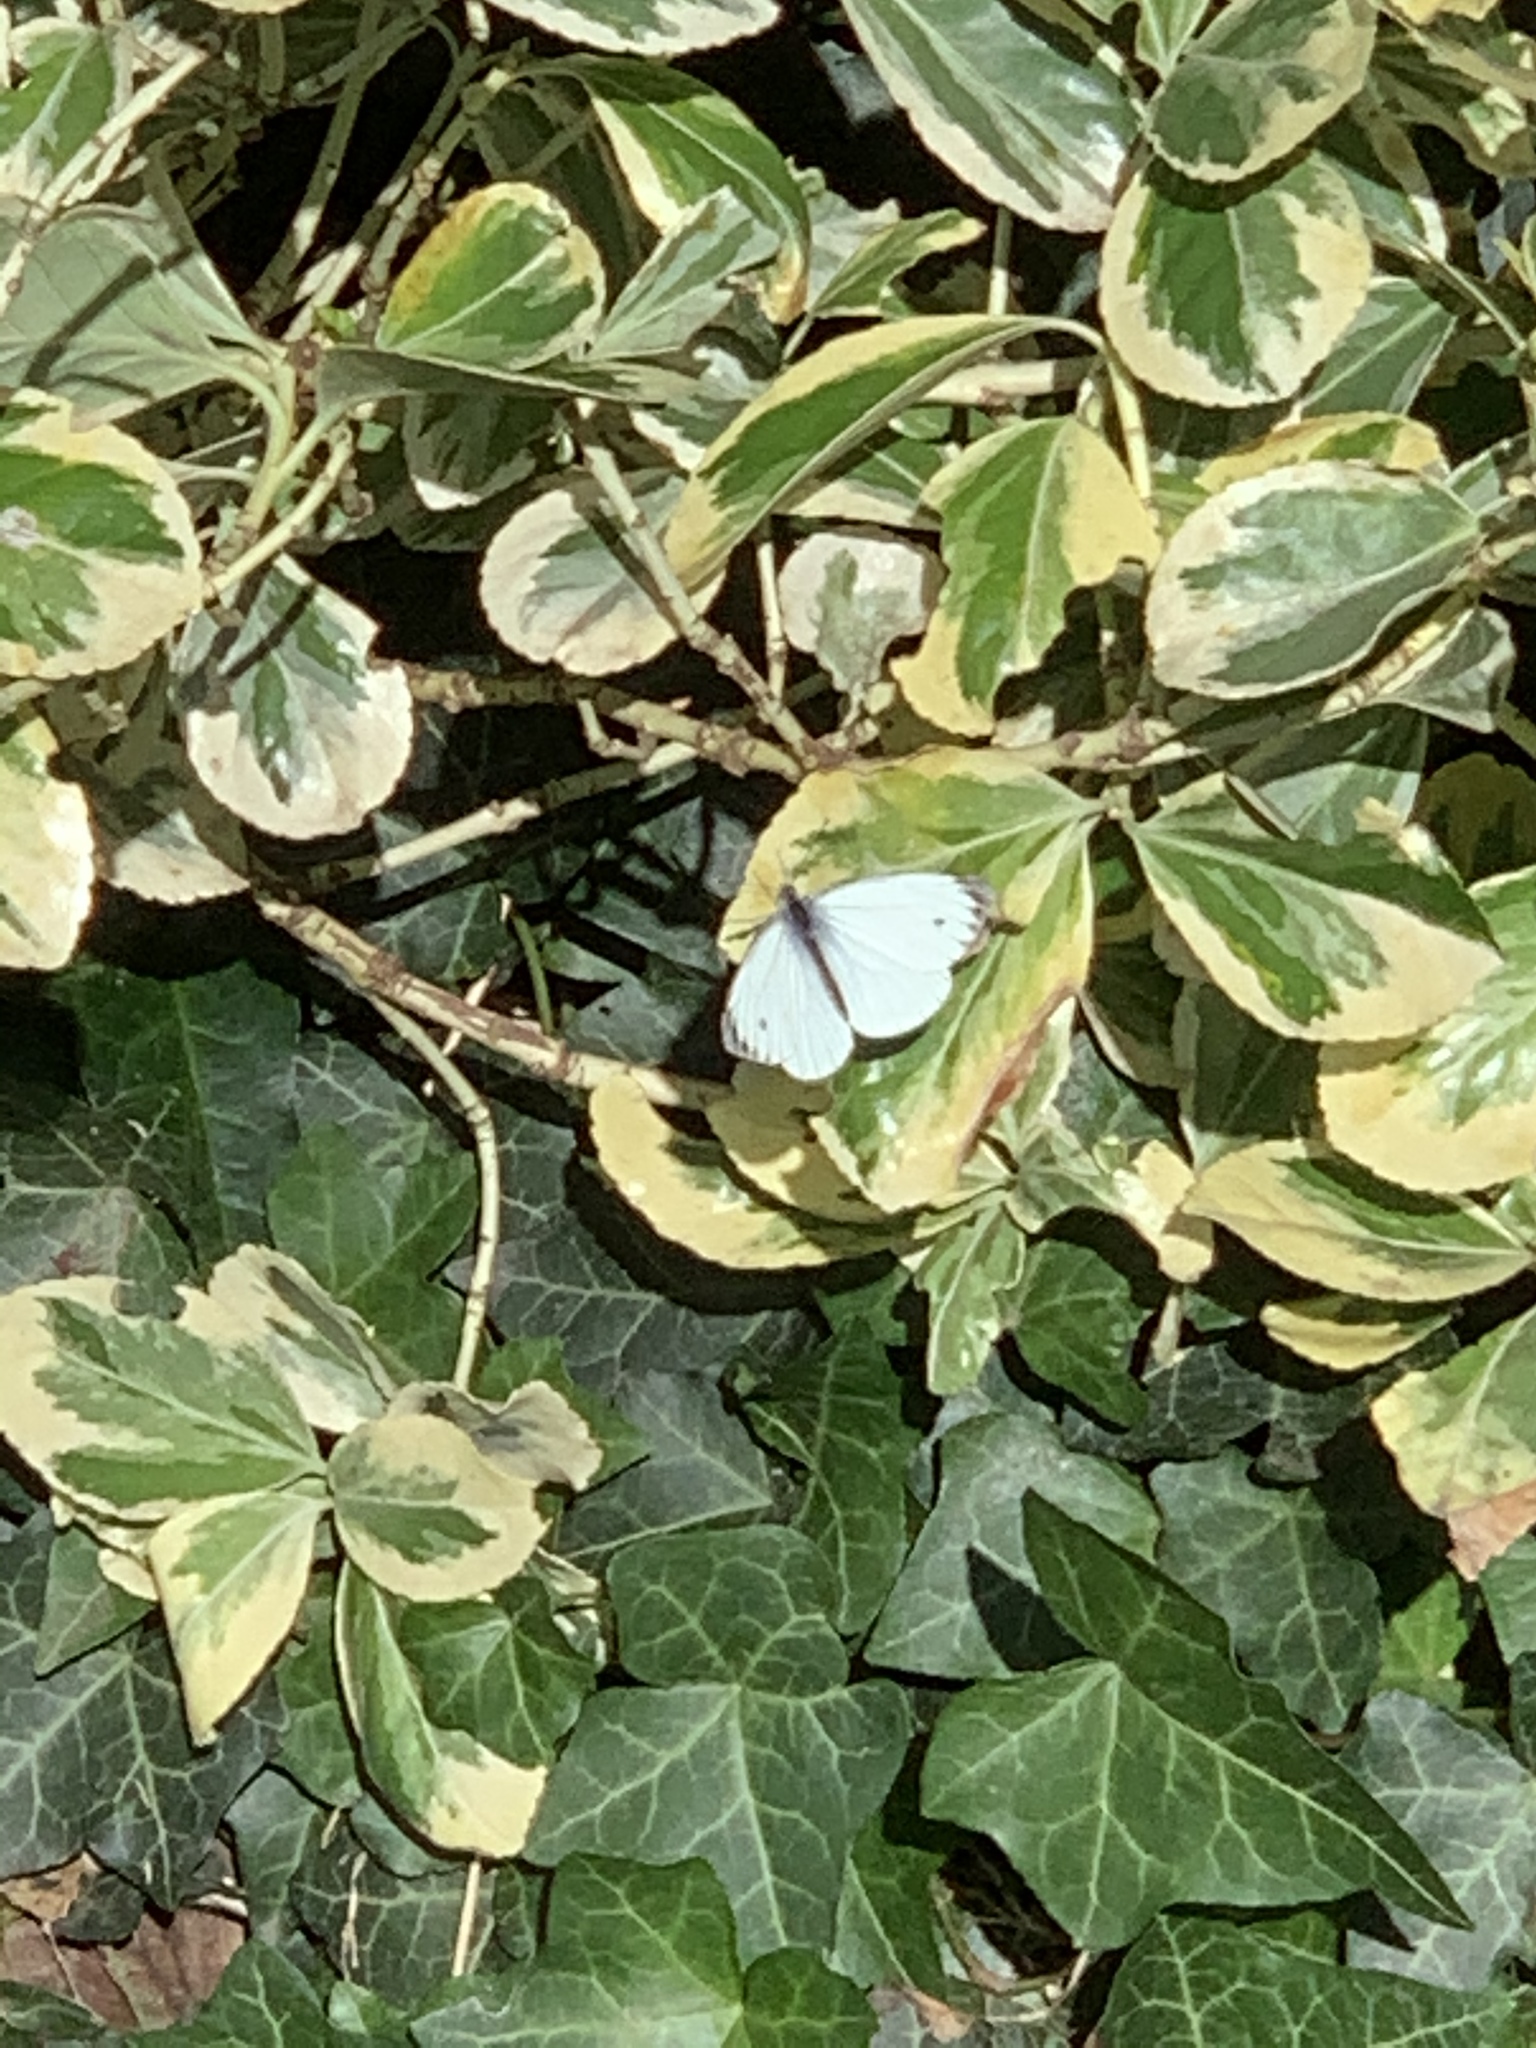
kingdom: Animalia
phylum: Arthropoda
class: Insecta
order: Lepidoptera
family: Pieridae
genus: Pieris
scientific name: Pieris napi
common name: Green-veined white
